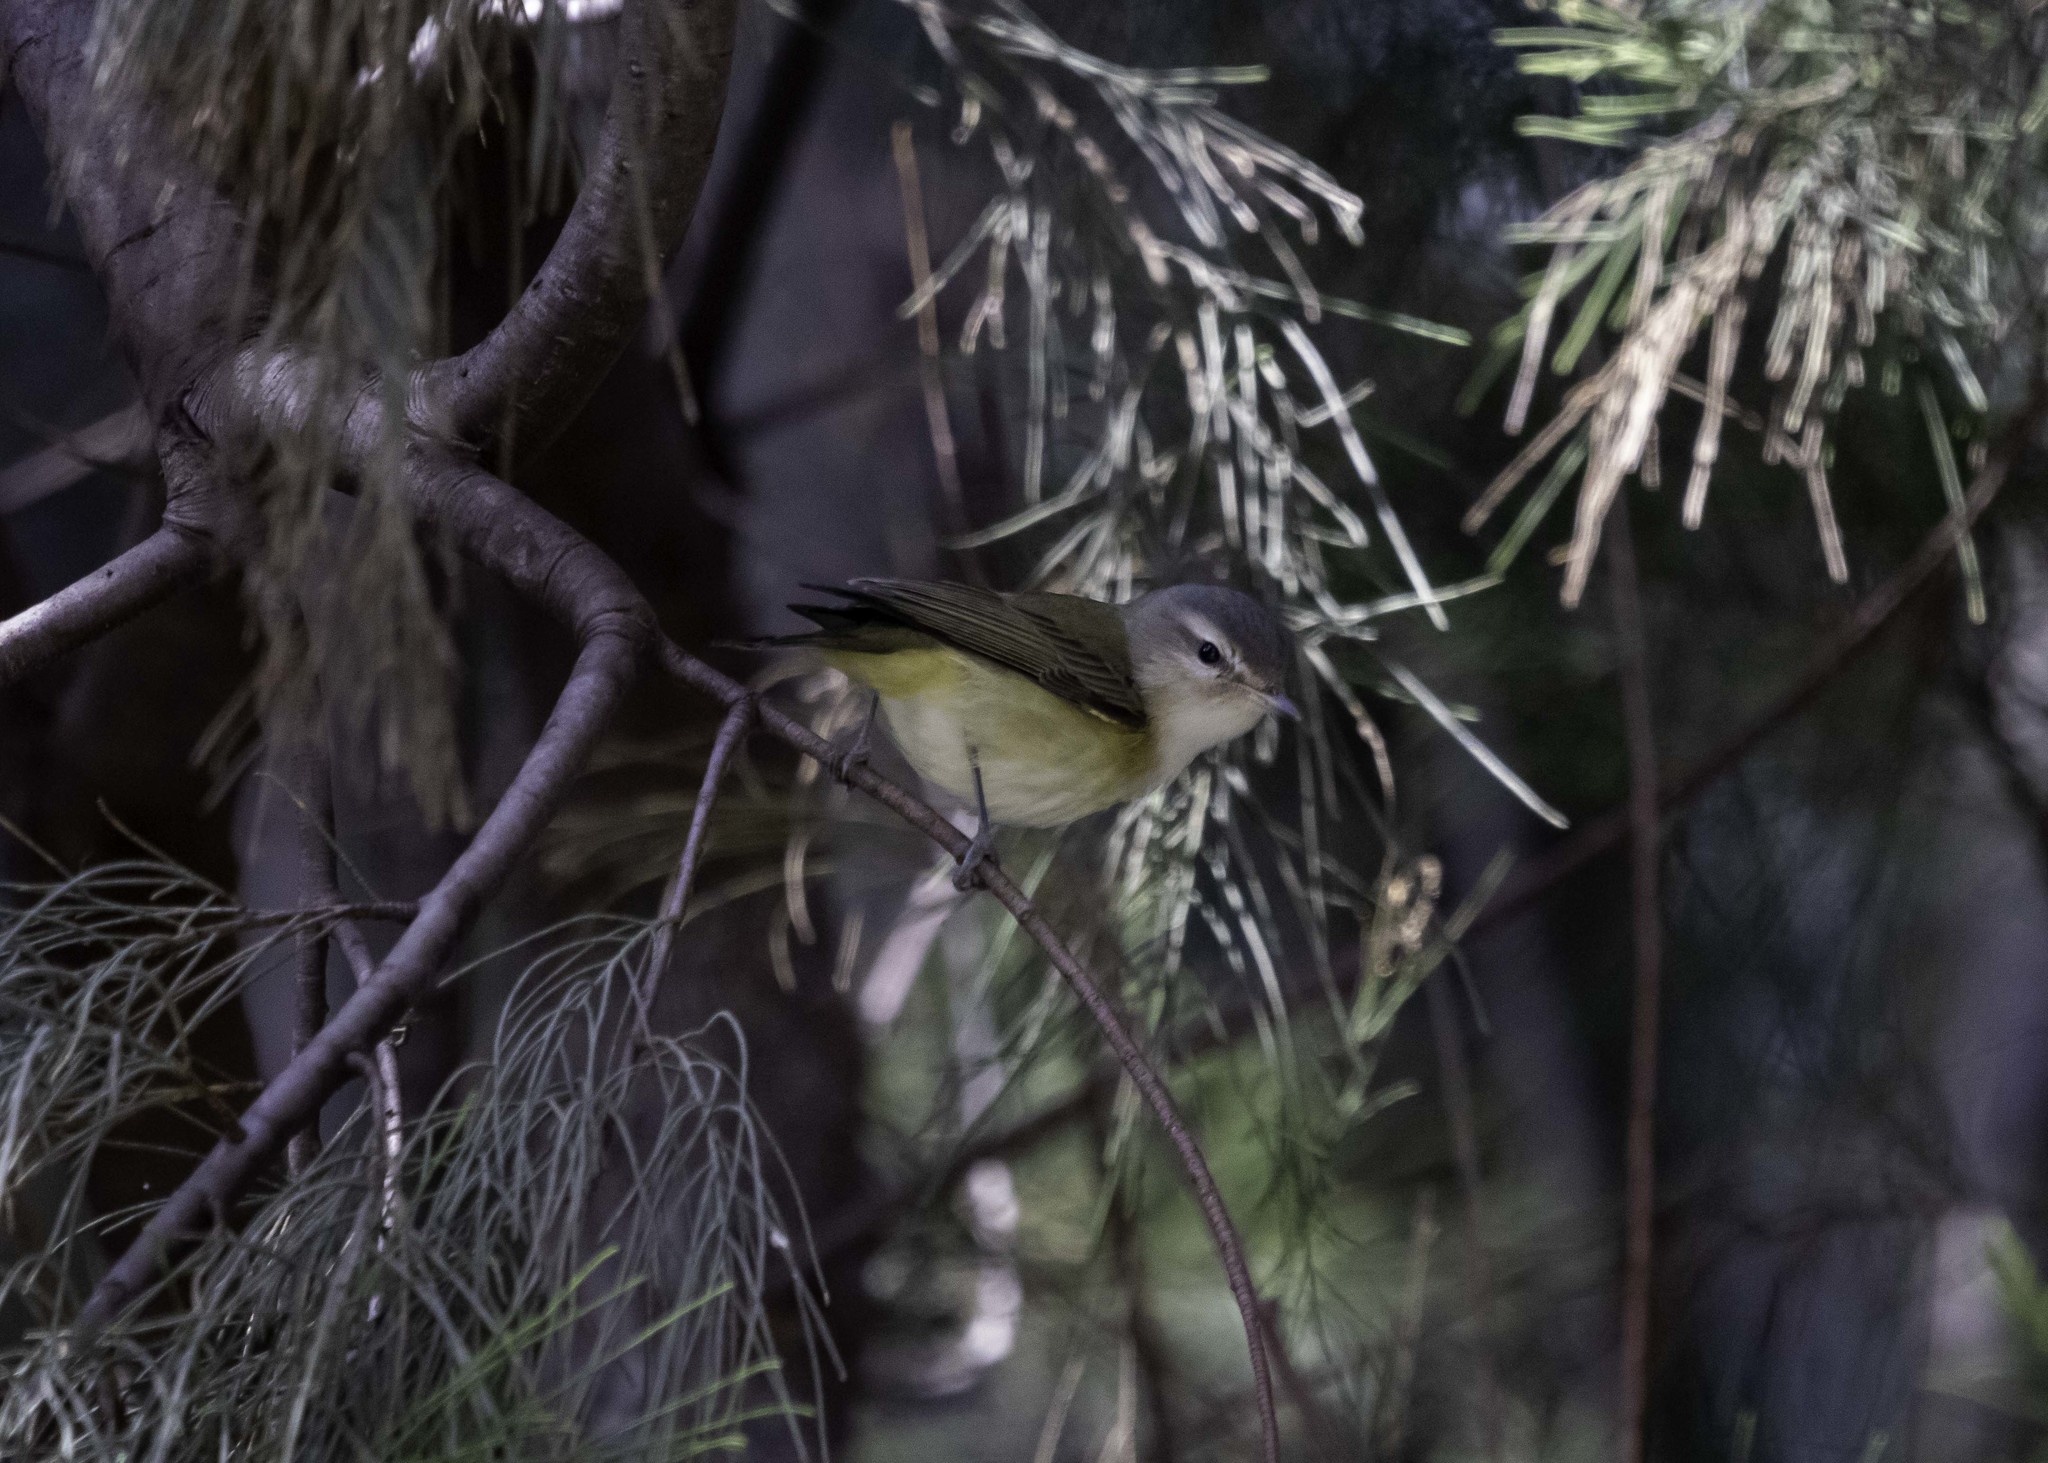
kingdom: Animalia
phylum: Chordata
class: Aves
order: Passeriformes
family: Vireonidae
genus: Vireo
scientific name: Vireo gilvus
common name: Warbling vireo
